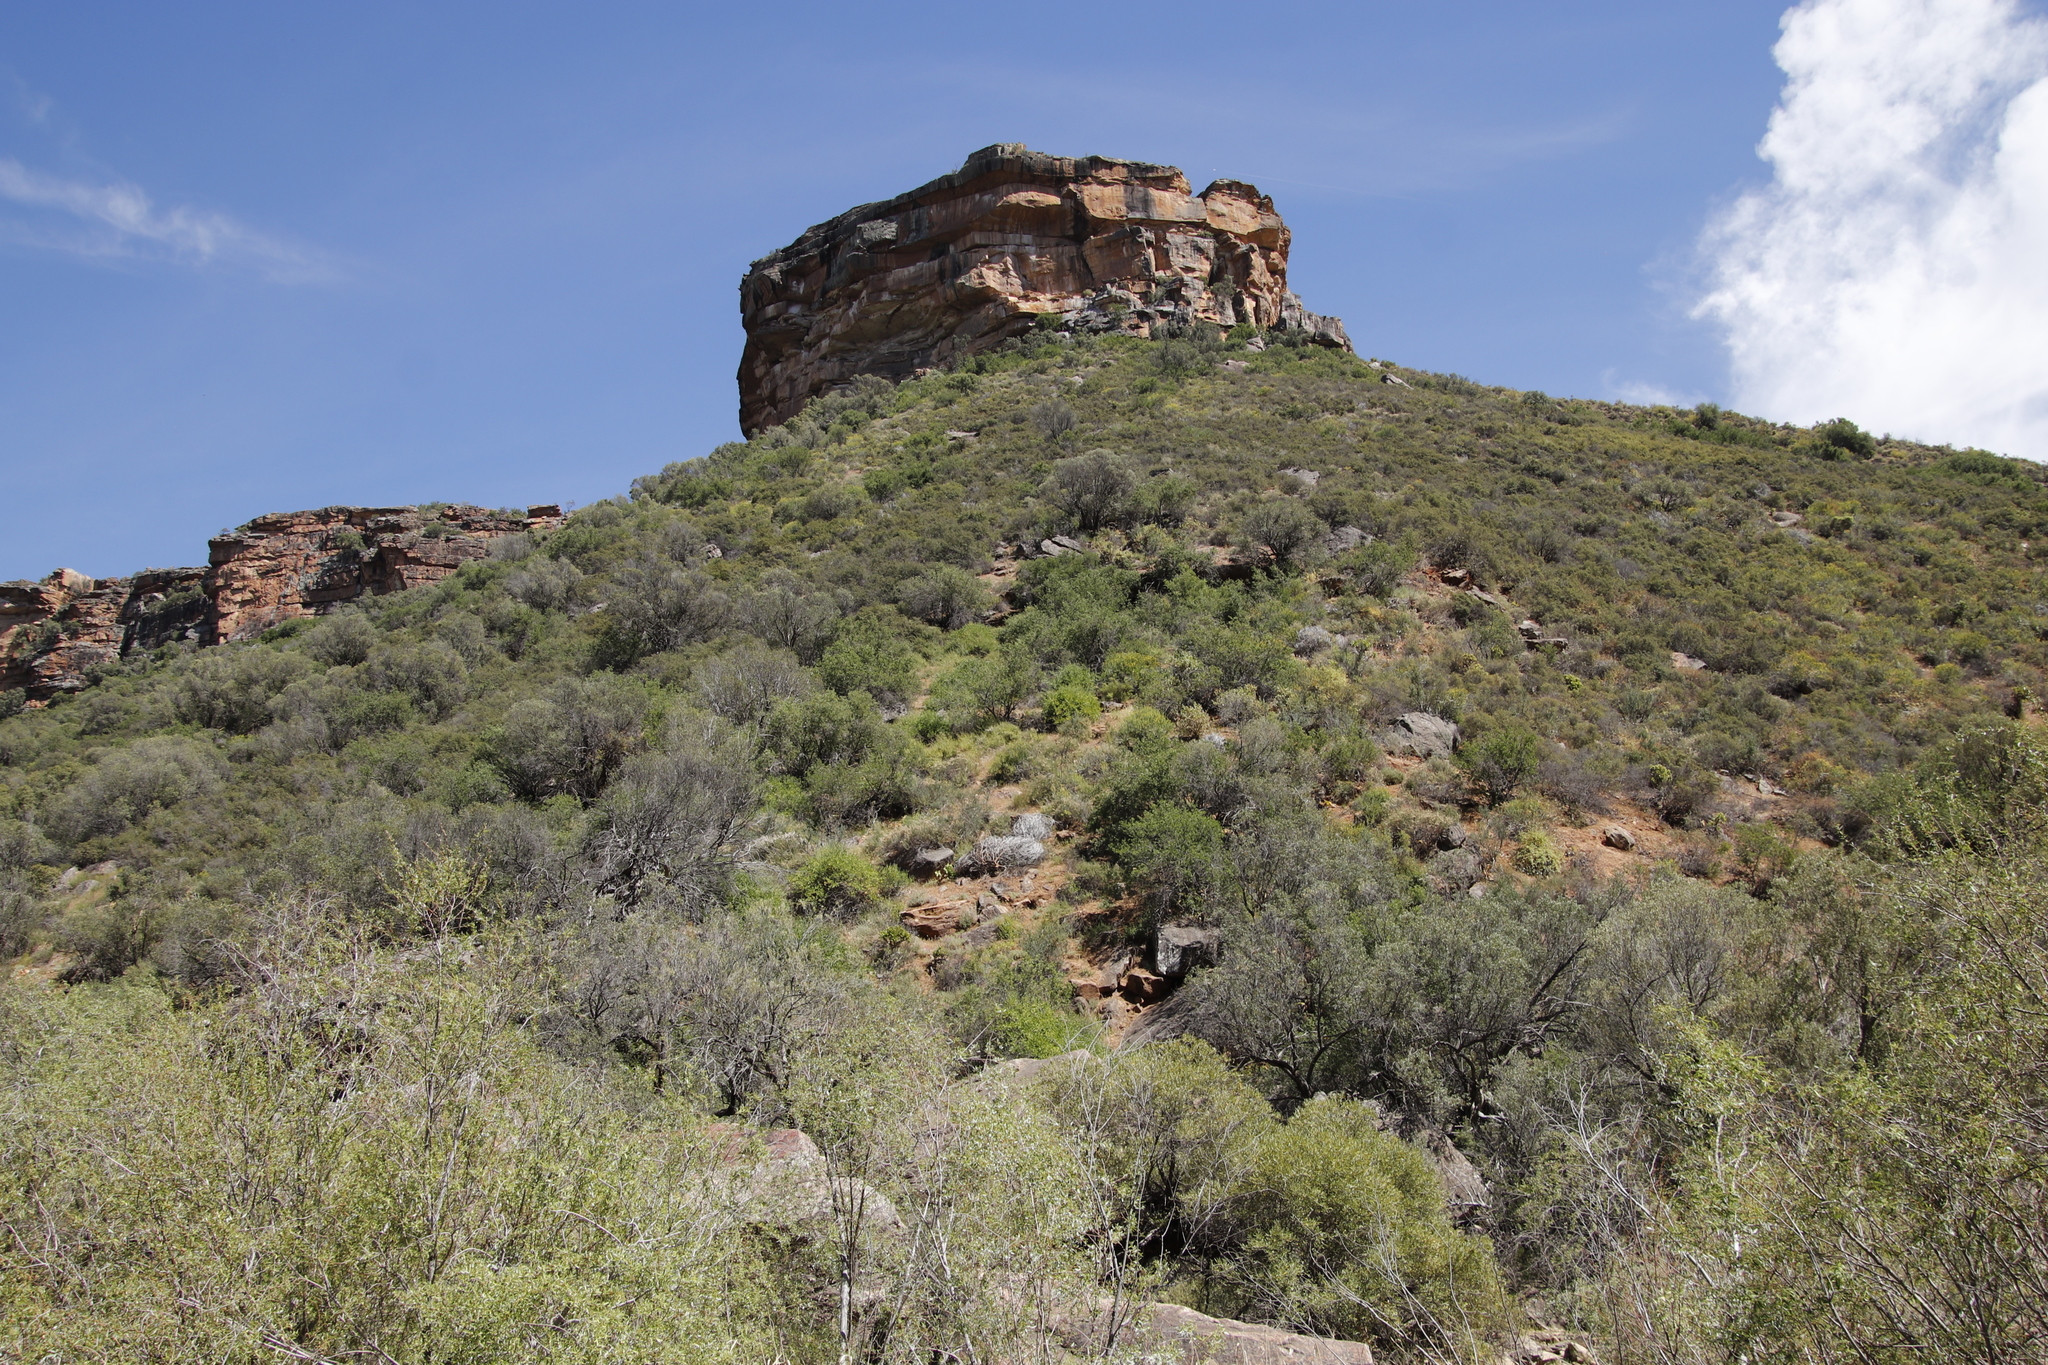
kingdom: Plantae
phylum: Tracheophyta
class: Magnoliopsida
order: Lamiales
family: Oleaceae
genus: Olea
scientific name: Olea europaea
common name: Olive
